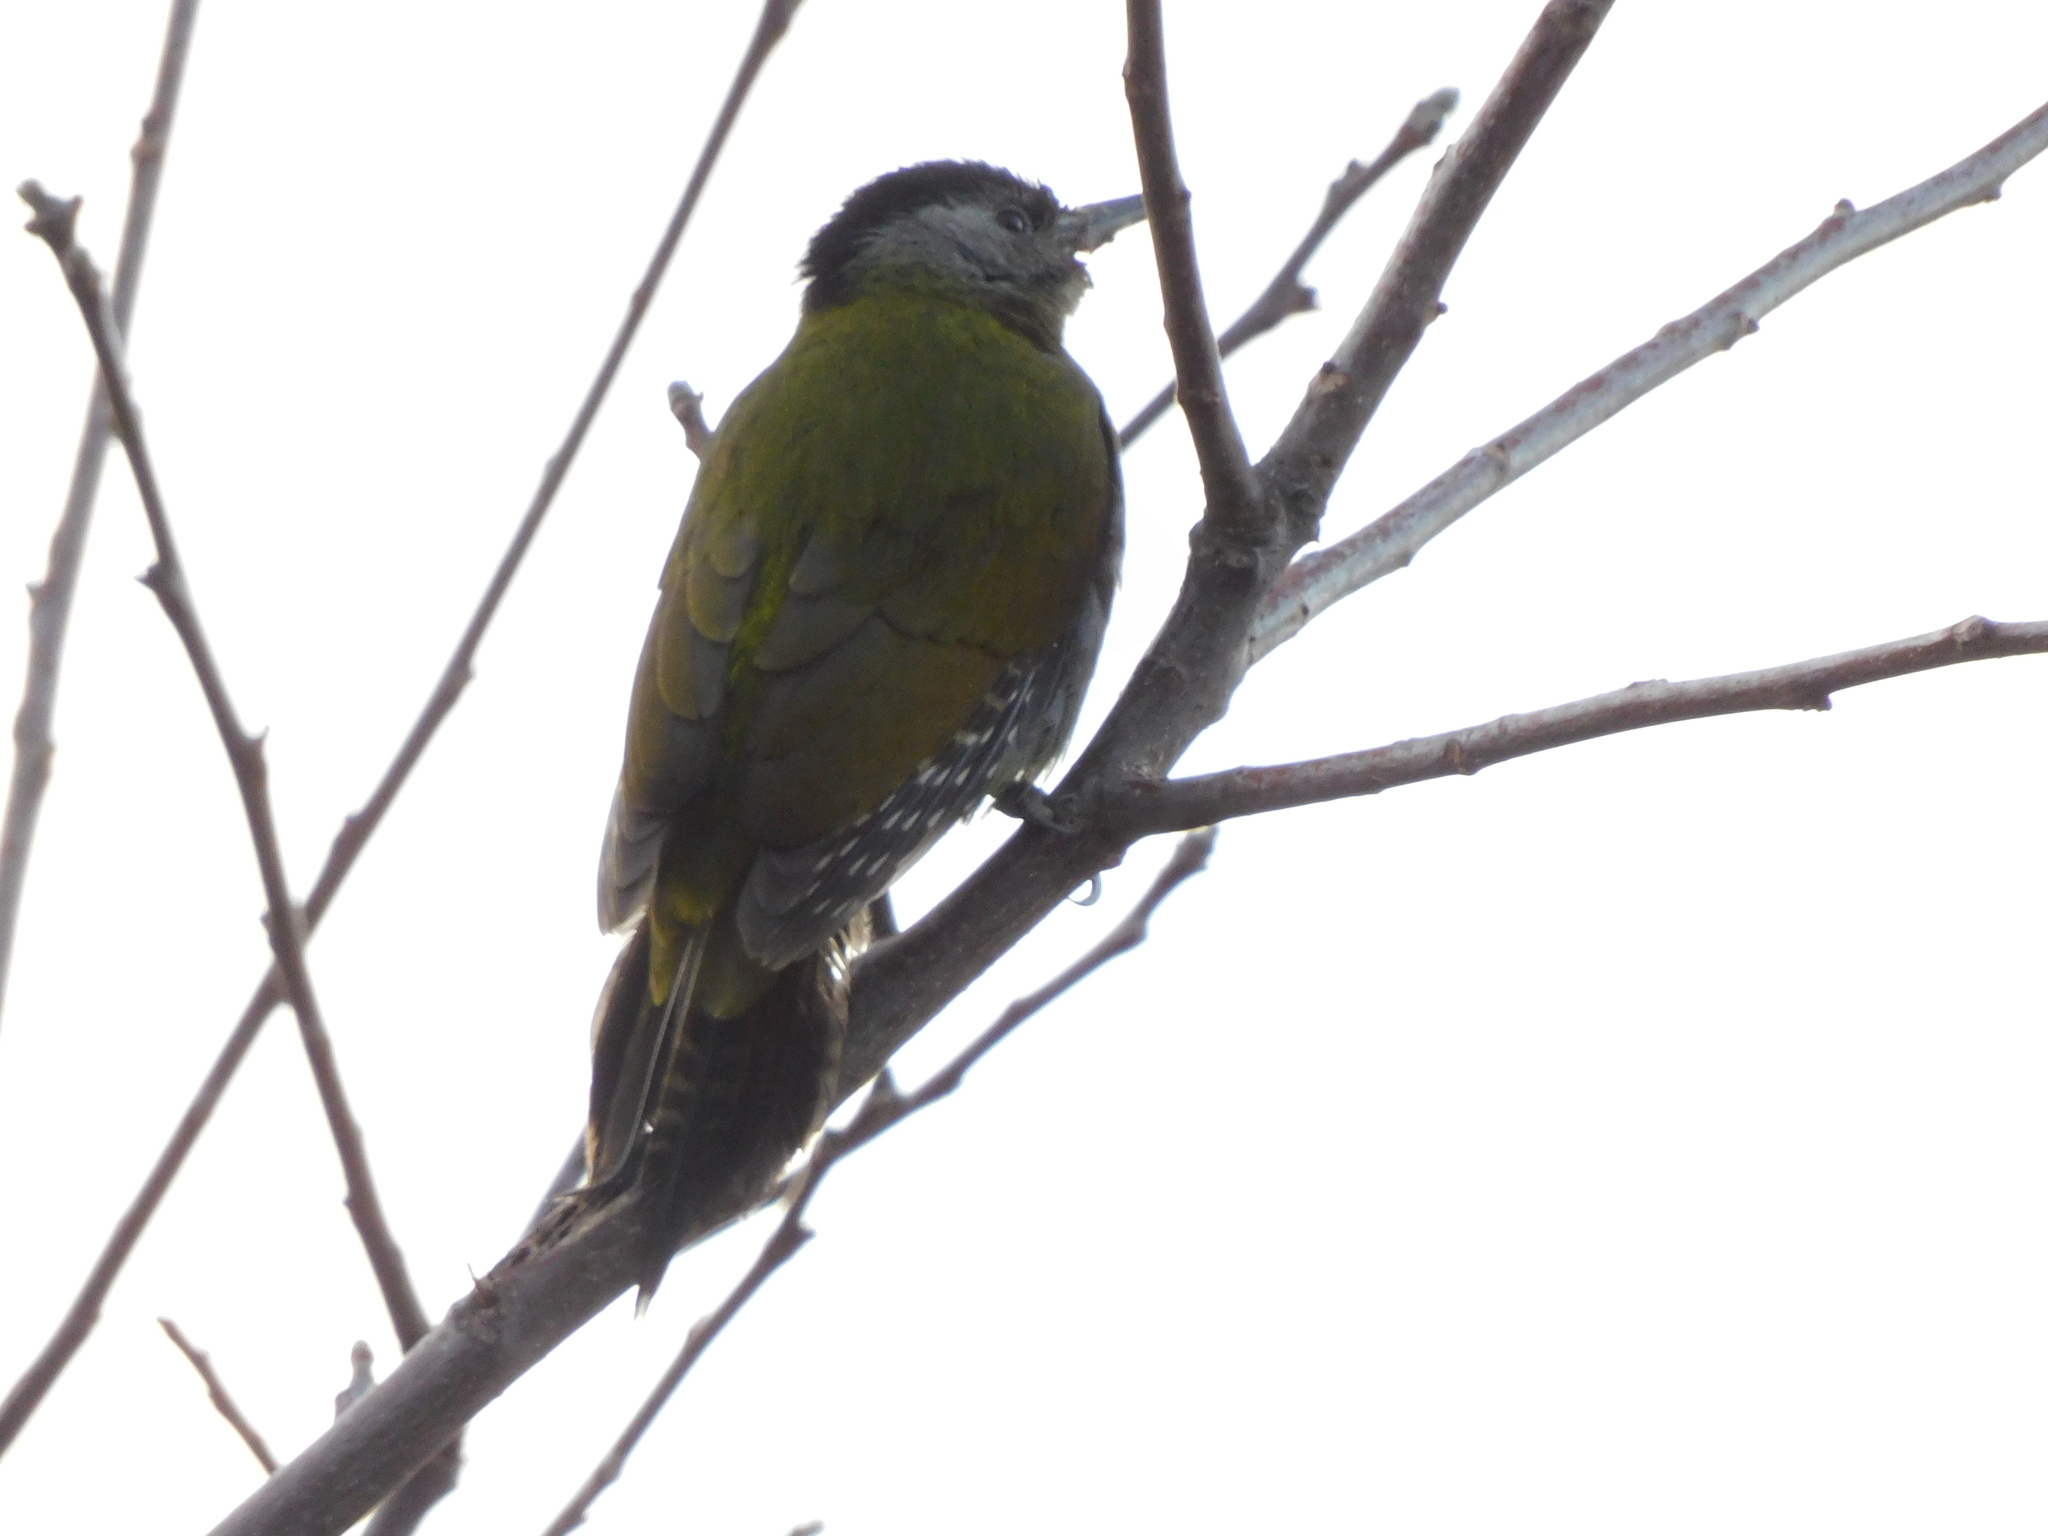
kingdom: Animalia
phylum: Chordata
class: Aves
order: Piciformes
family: Picidae
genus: Picus
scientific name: Picus canus
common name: Grey-headed woodpecker
